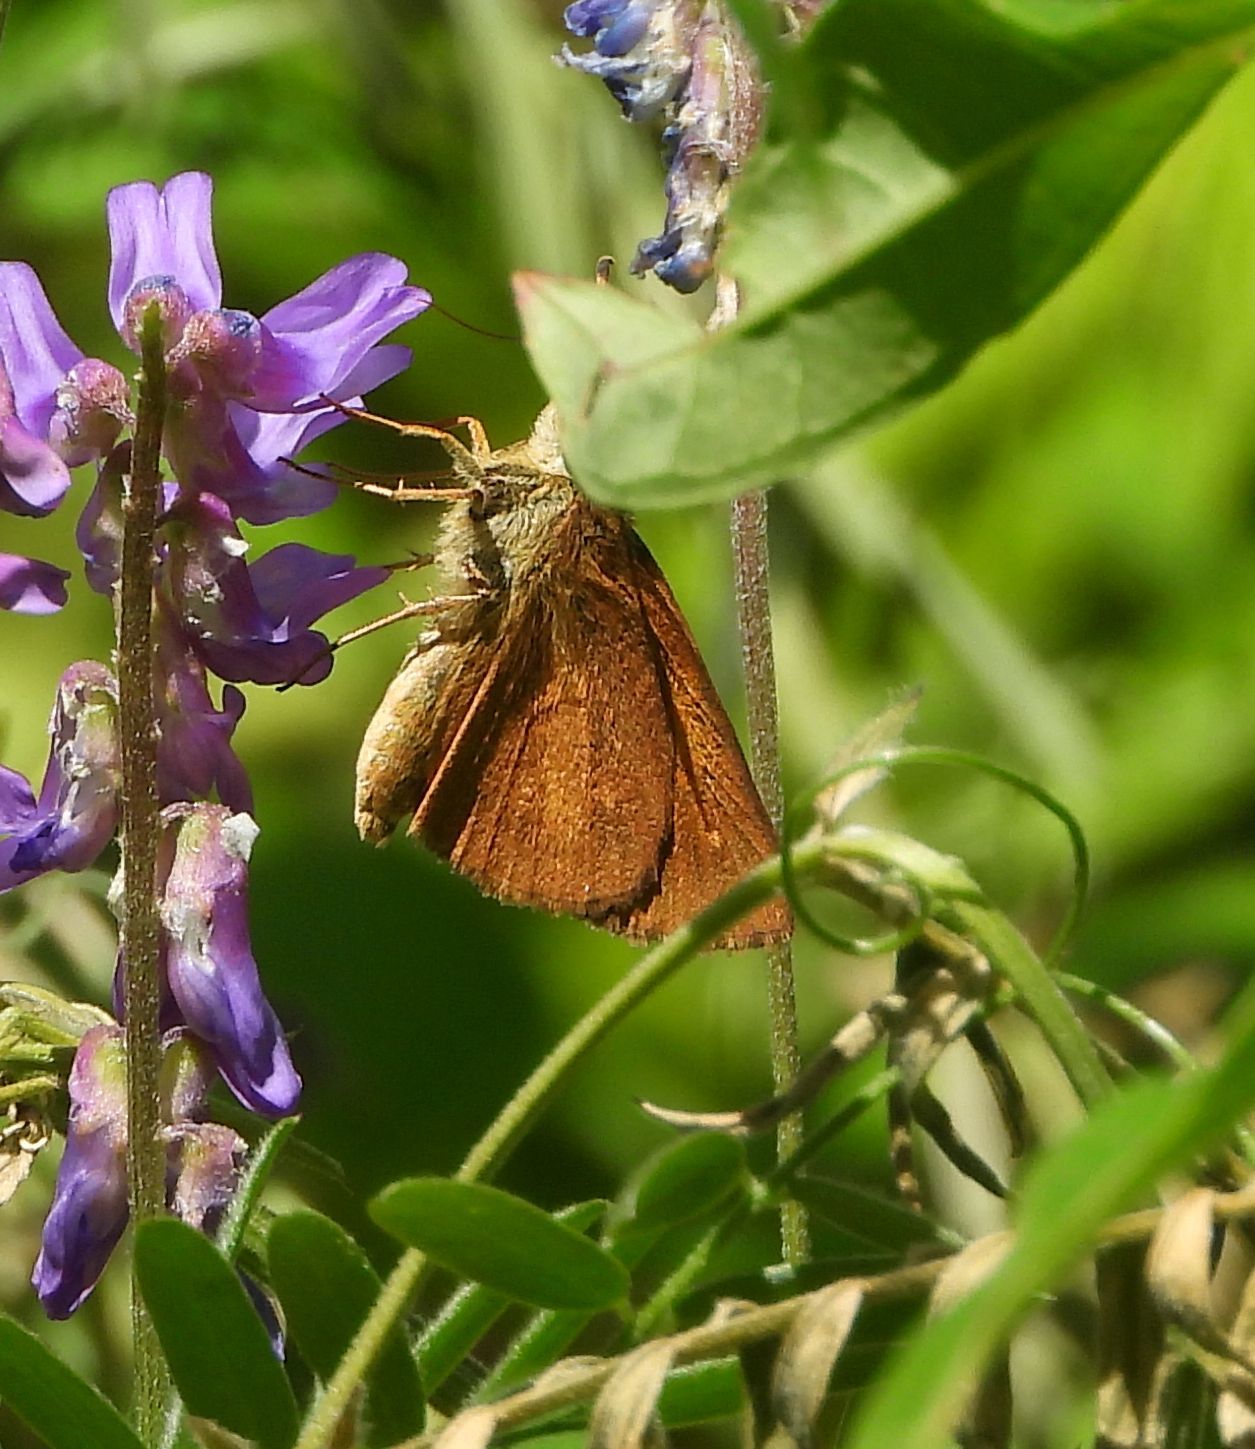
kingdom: Animalia
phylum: Arthropoda
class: Insecta
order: Lepidoptera
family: Hesperiidae
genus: Poanes
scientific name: Poanes viator
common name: Broad-winged skipper
